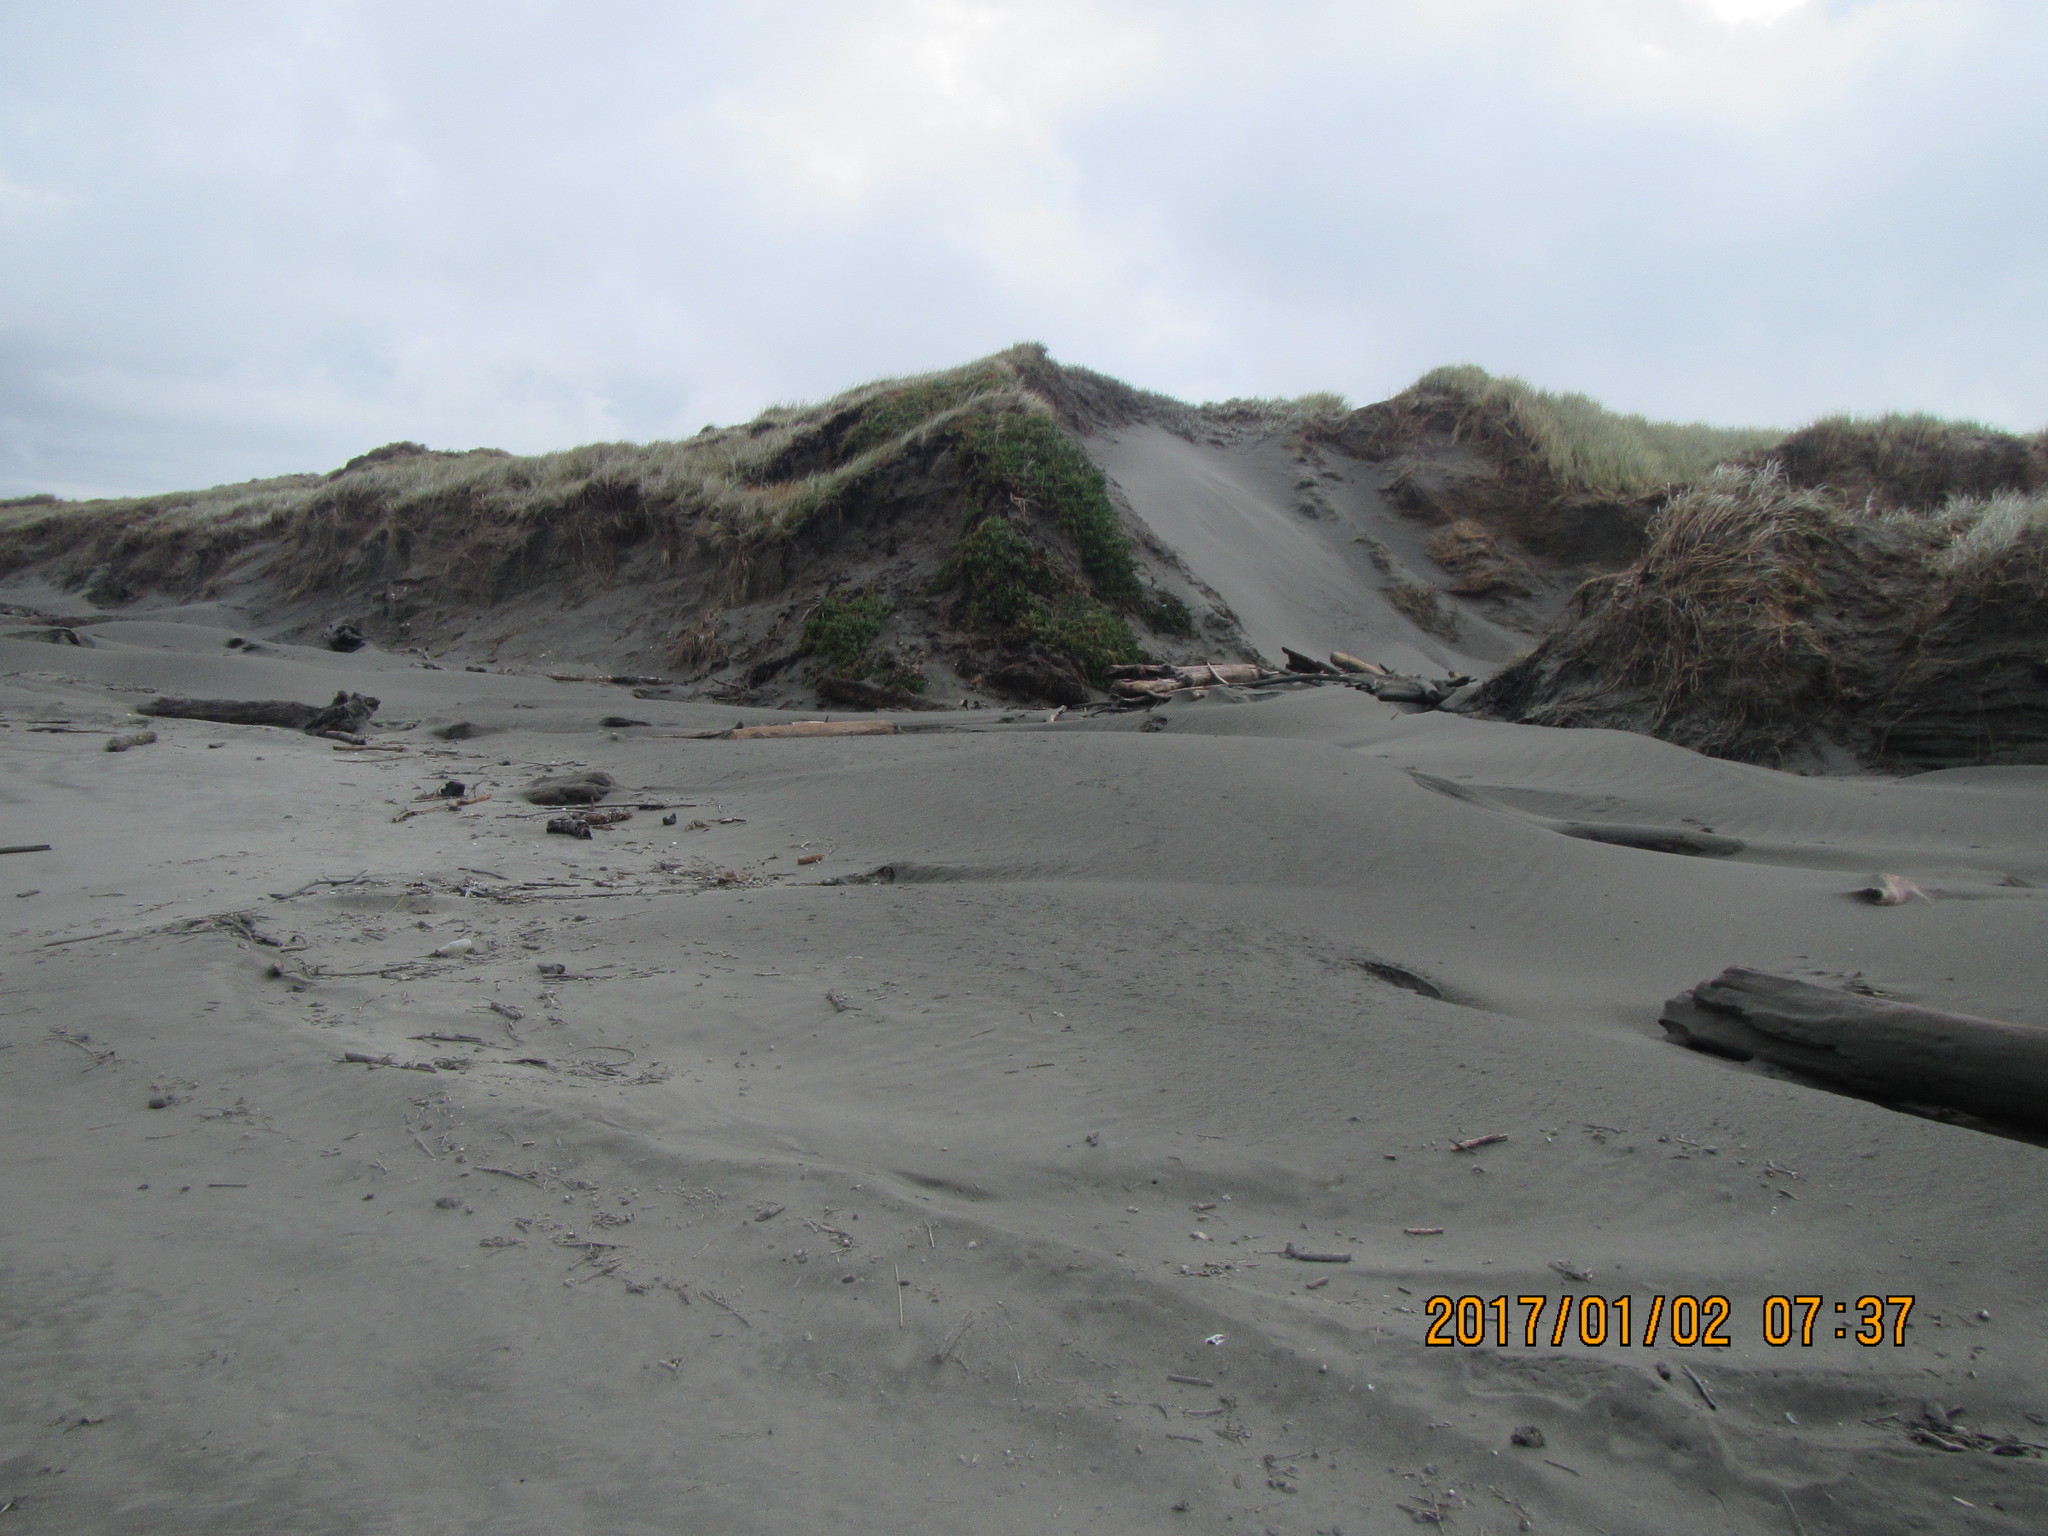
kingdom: Plantae
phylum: Tracheophyta
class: Magnoliopsida
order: Caryophyllales
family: Aizoaceae
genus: Carpobrotus
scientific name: Carpobrotus chilensis
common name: Sea fig
